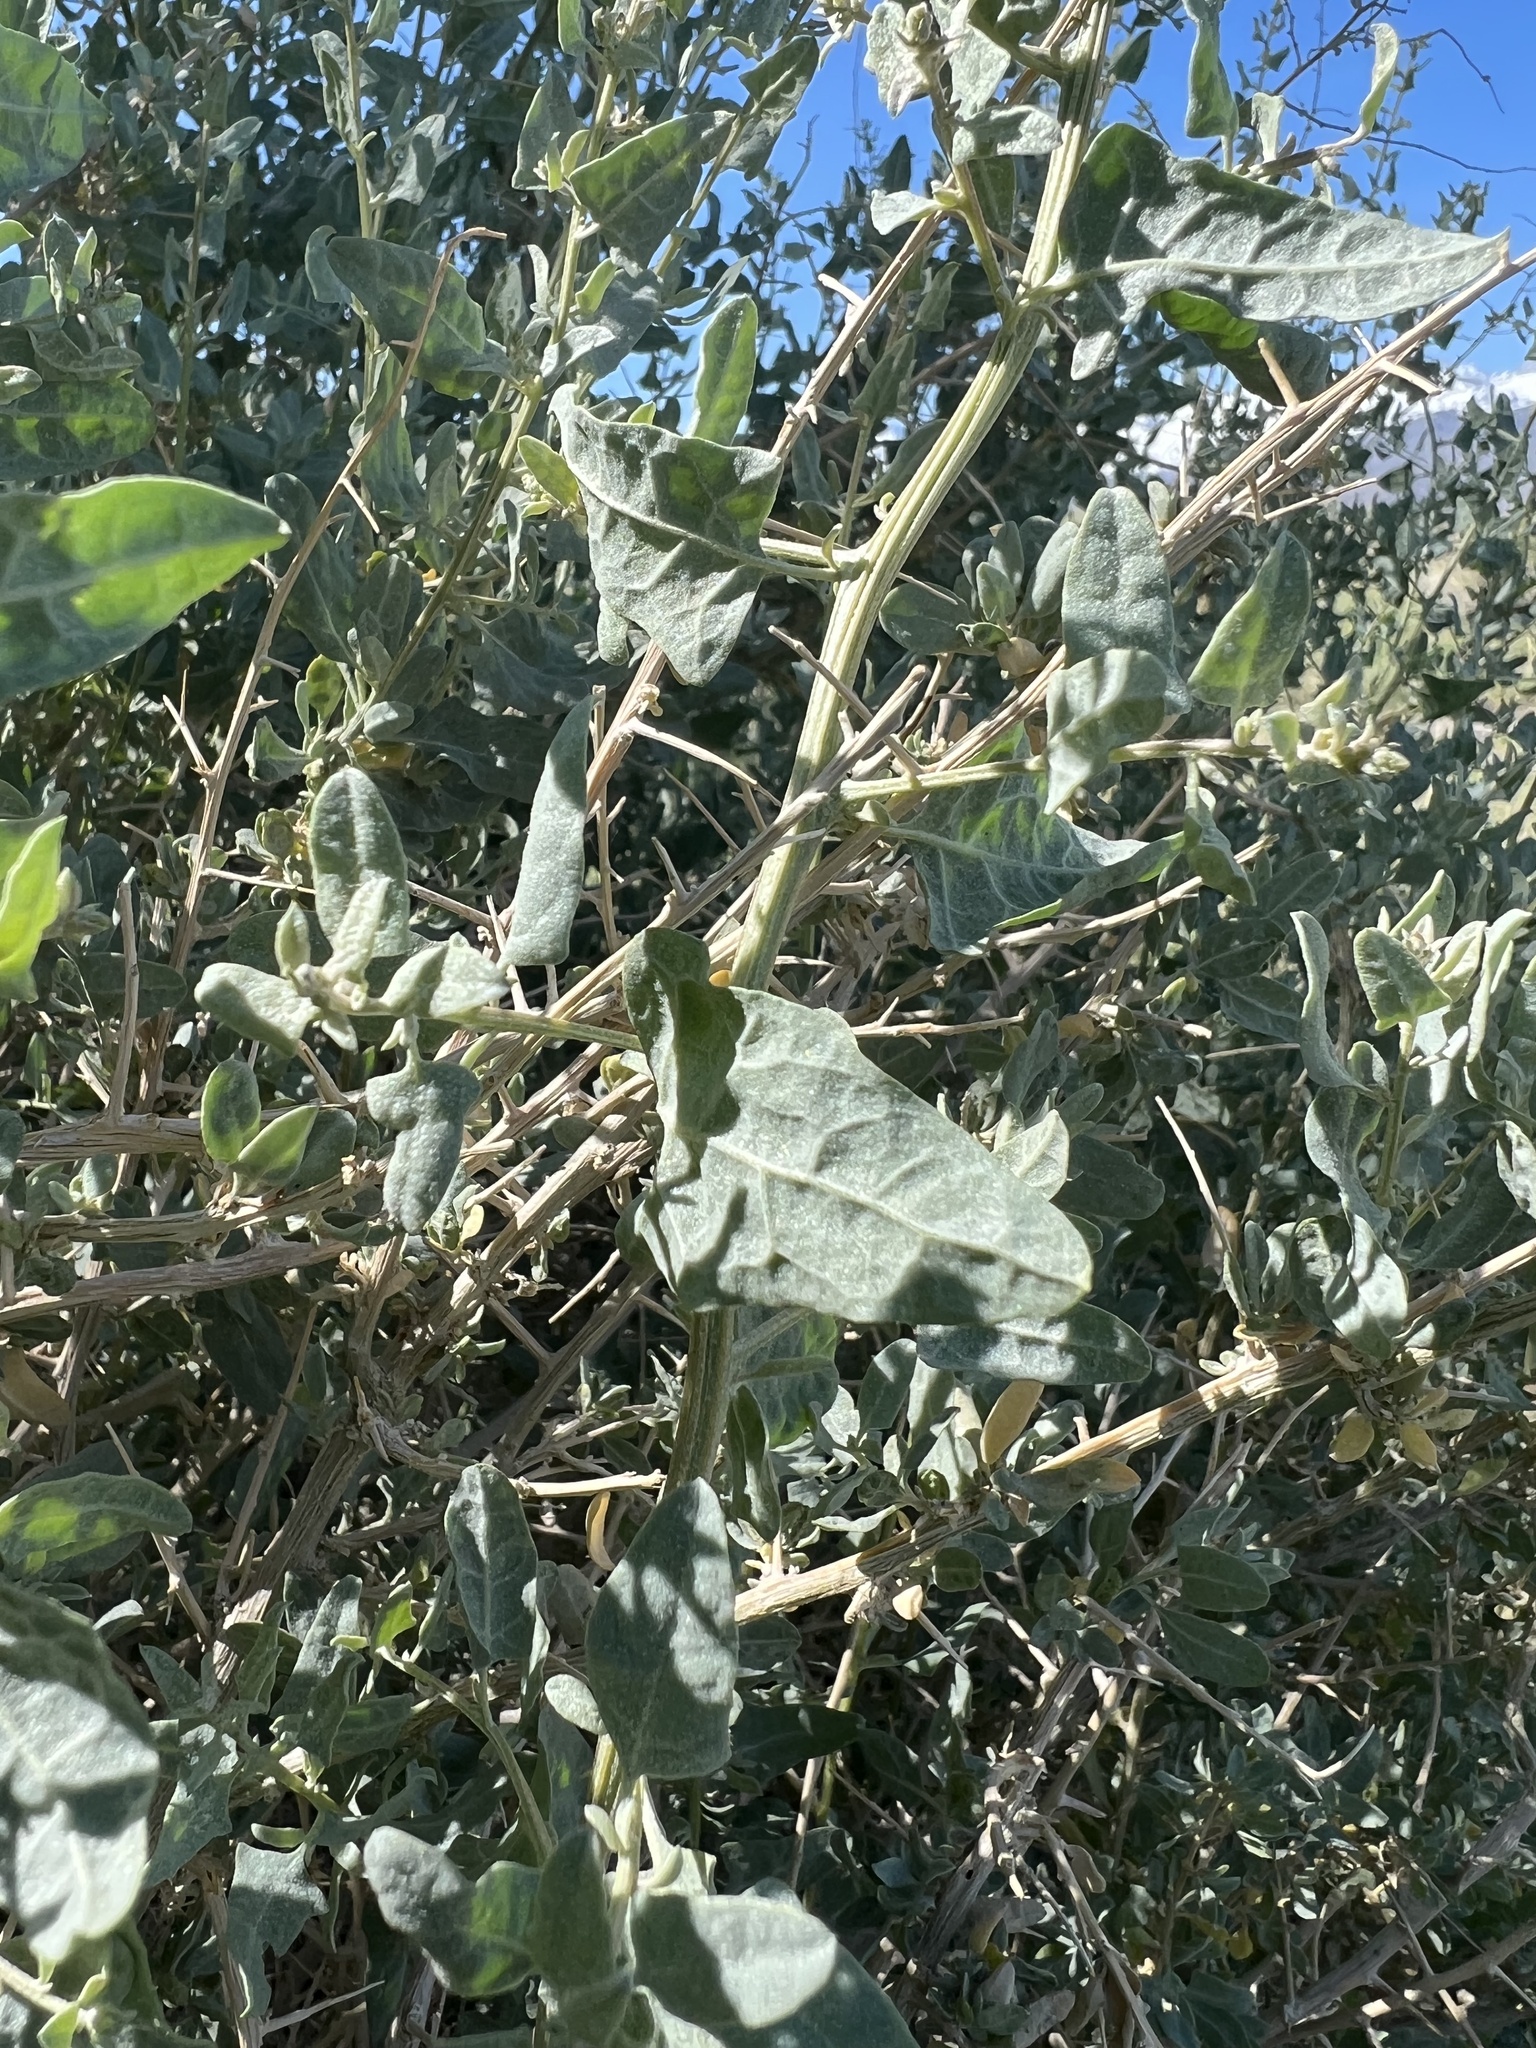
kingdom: Plantae
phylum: Tracheophyta
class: Magnoliopsida
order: Caryophyllales
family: Amaranthaceae
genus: Atriplex
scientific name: Atriplex torreyi
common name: Torrey's saltbush
